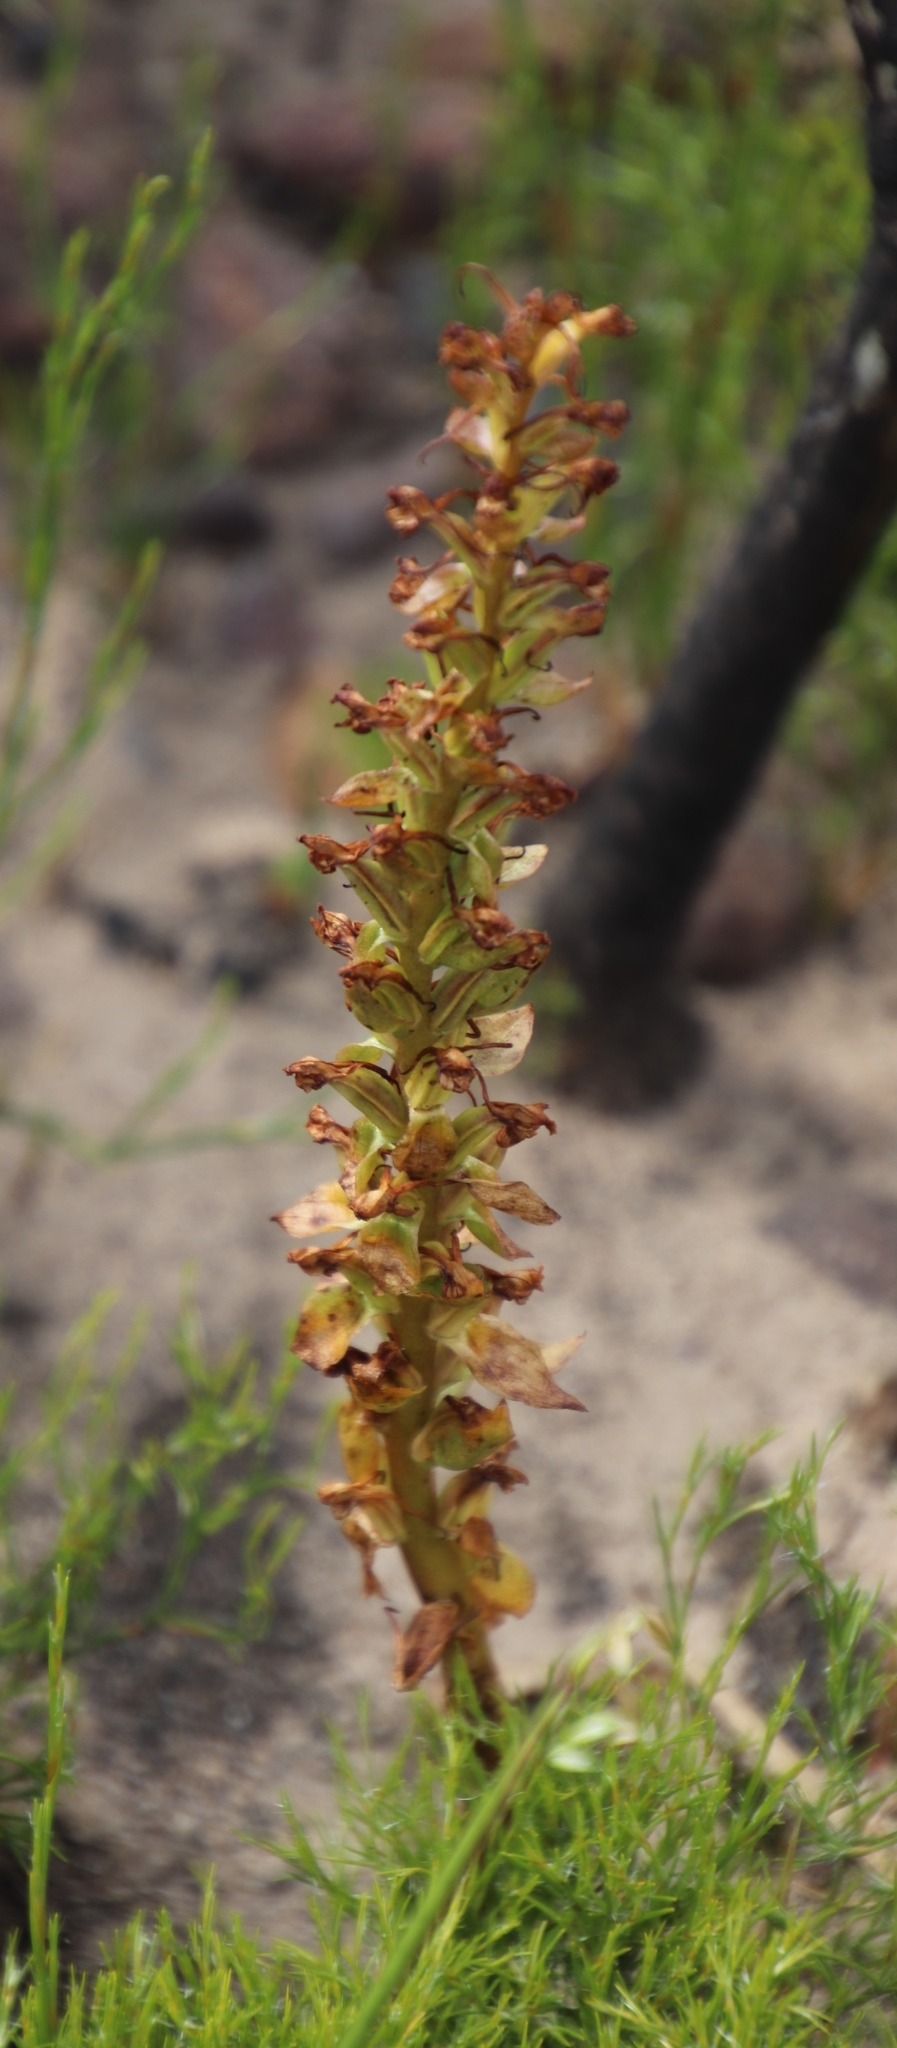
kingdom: Plantae
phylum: Tracheophyta
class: Liliopsida
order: Asparagales
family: Orchidaceae
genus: Satyrium
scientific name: Satyrium humile
